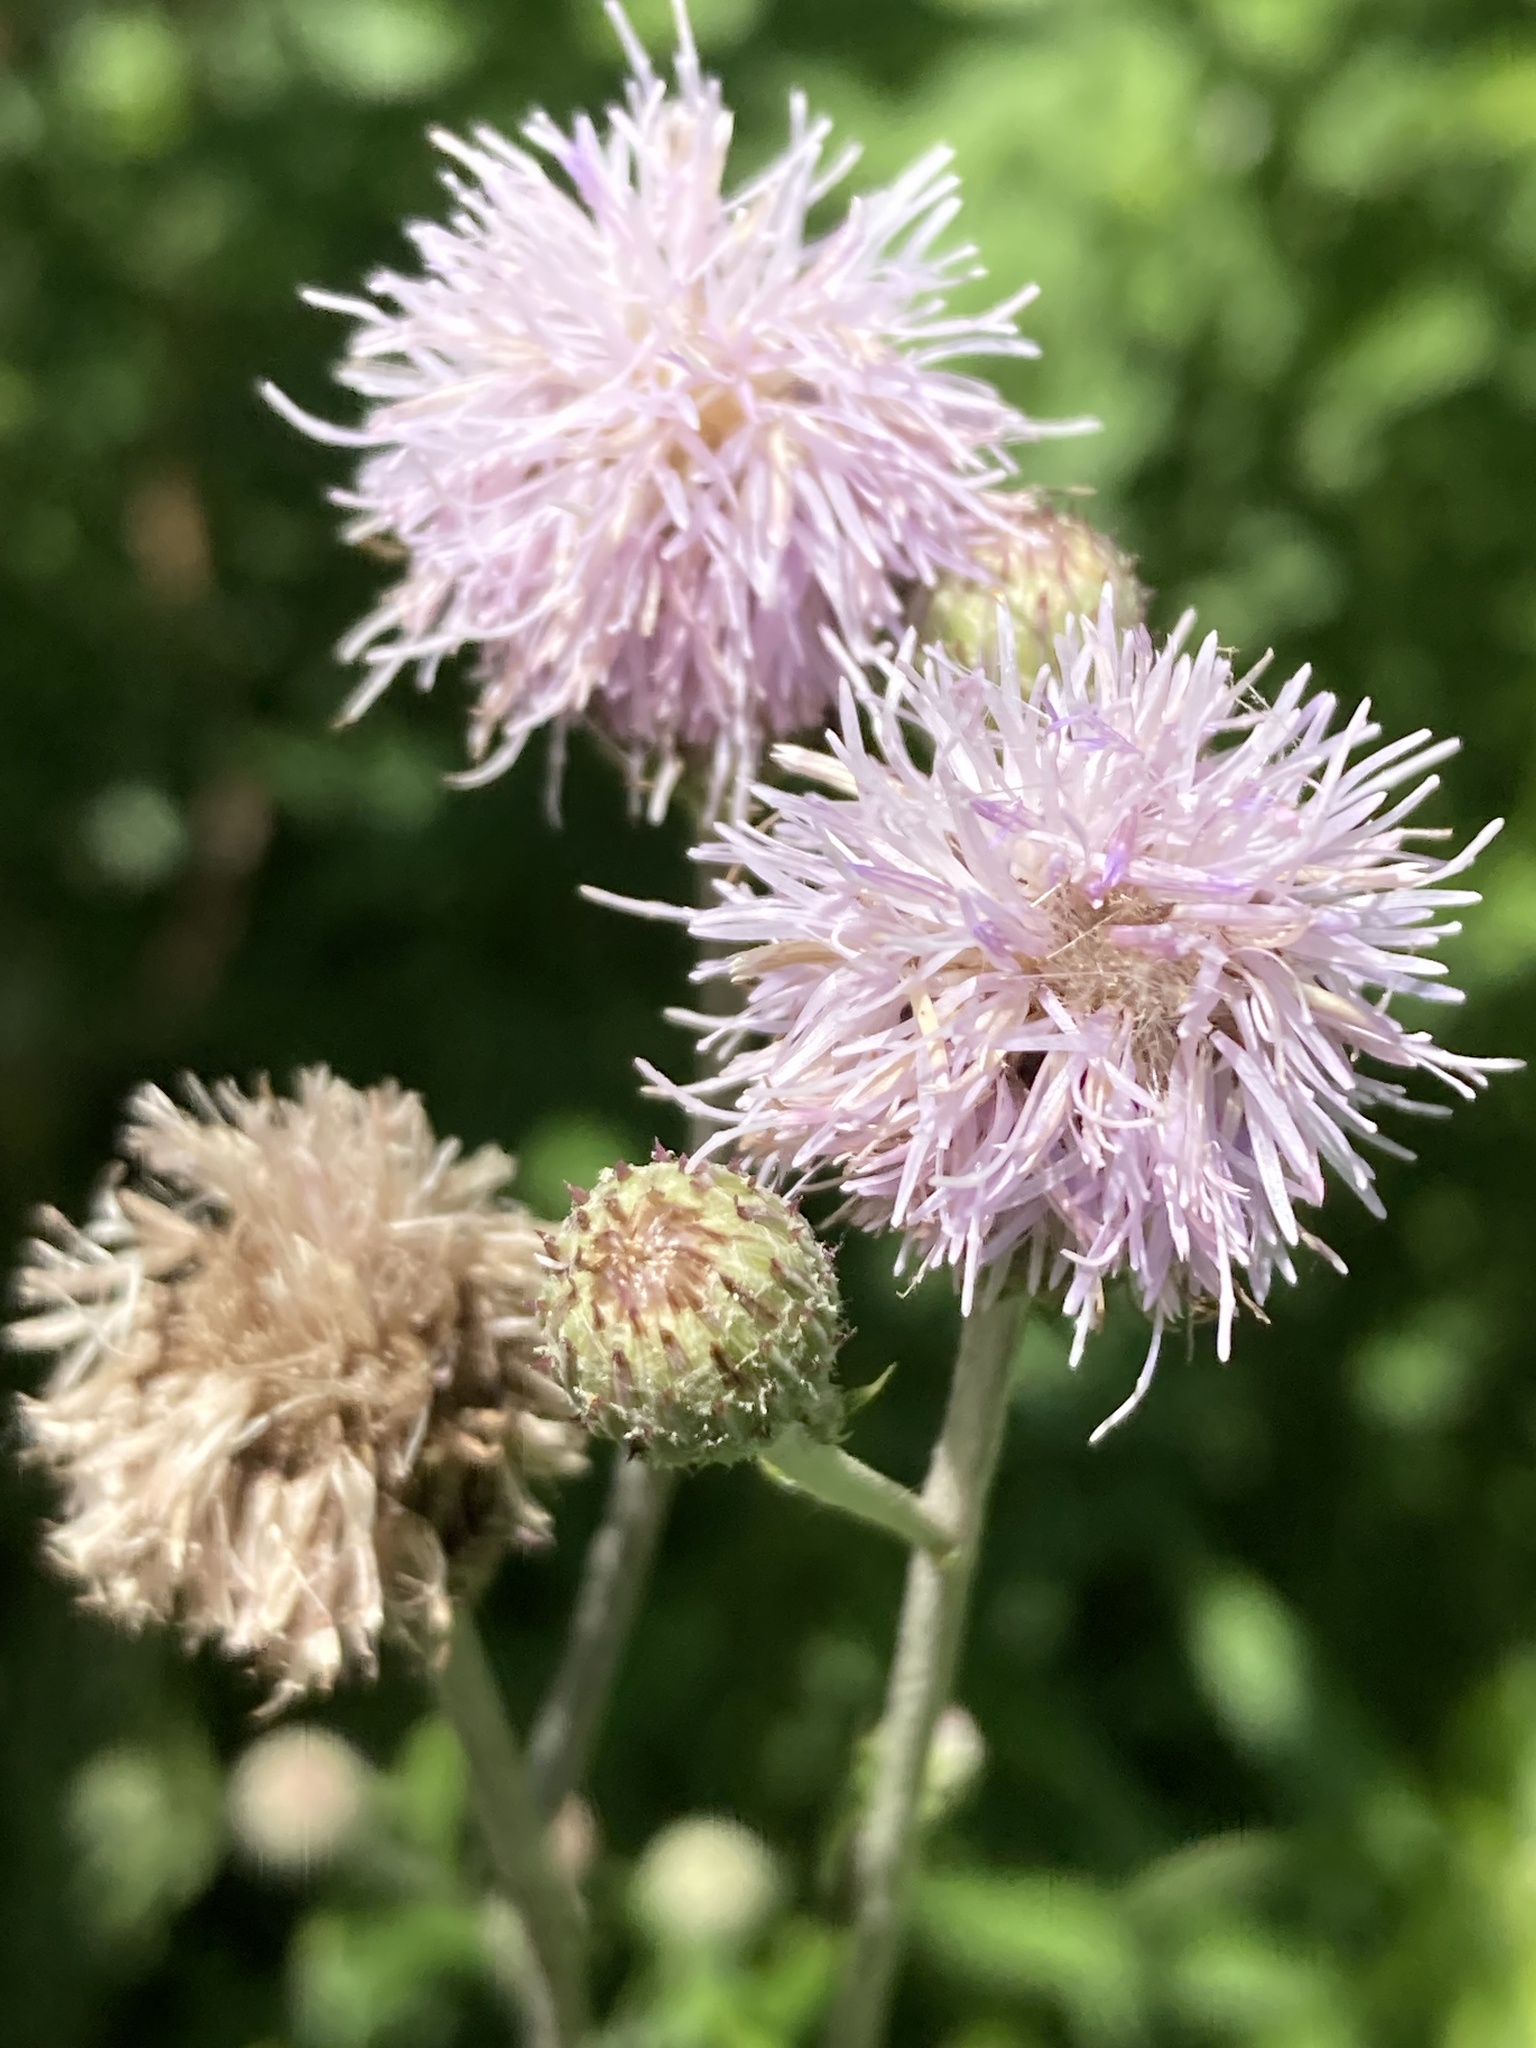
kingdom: Plantae
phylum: Tracheophyta
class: Magnoliopsida
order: Asterales
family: Asteraceae
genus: Cirsium
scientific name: Cirsium arvense
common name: Creeping thistle
